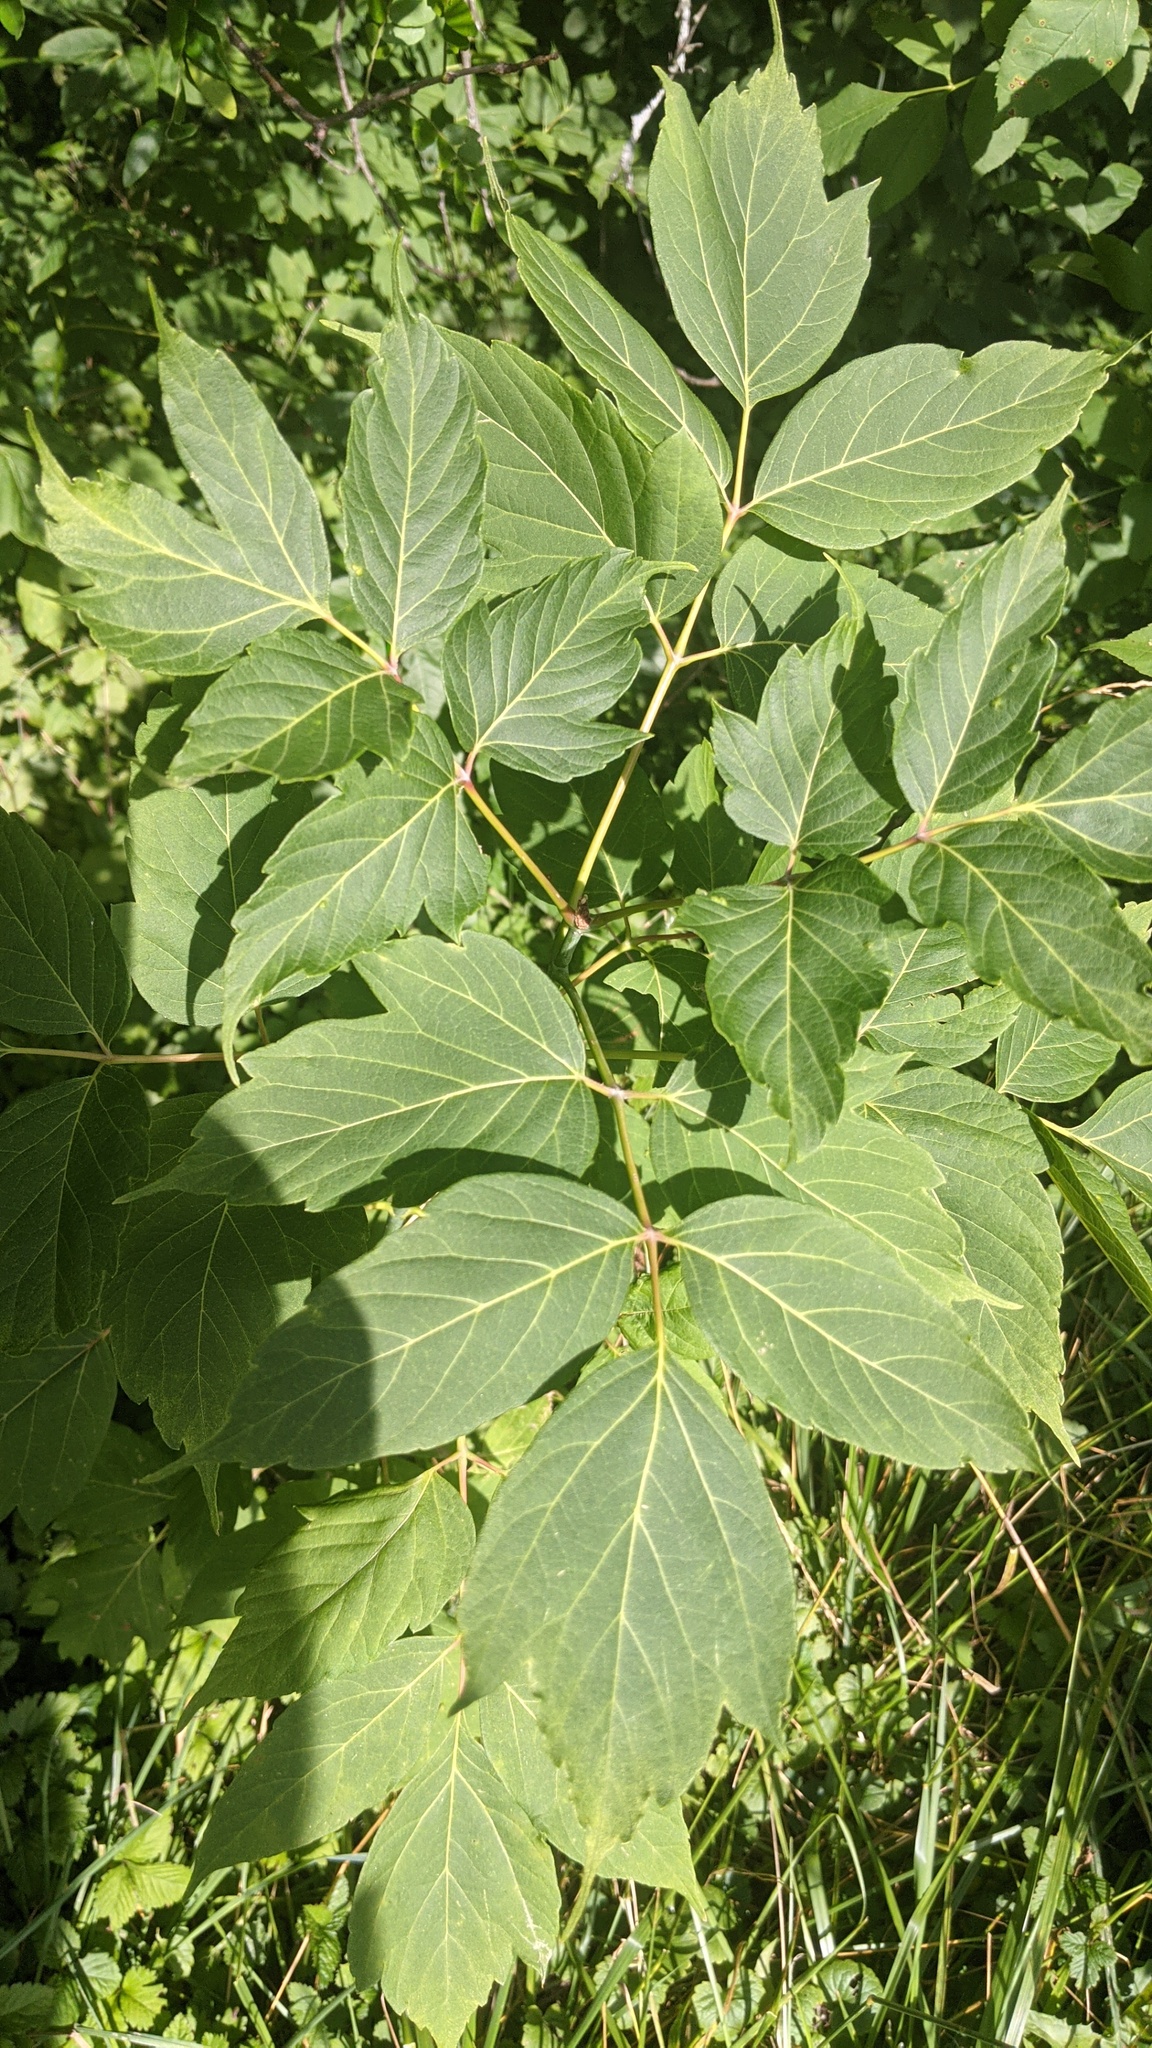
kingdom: Plantae
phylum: Tracheophyta
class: Magnoliopsida
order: Sapindales
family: Sapindaceae
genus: Acer
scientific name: Acer negundo
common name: Ashleaf maple
